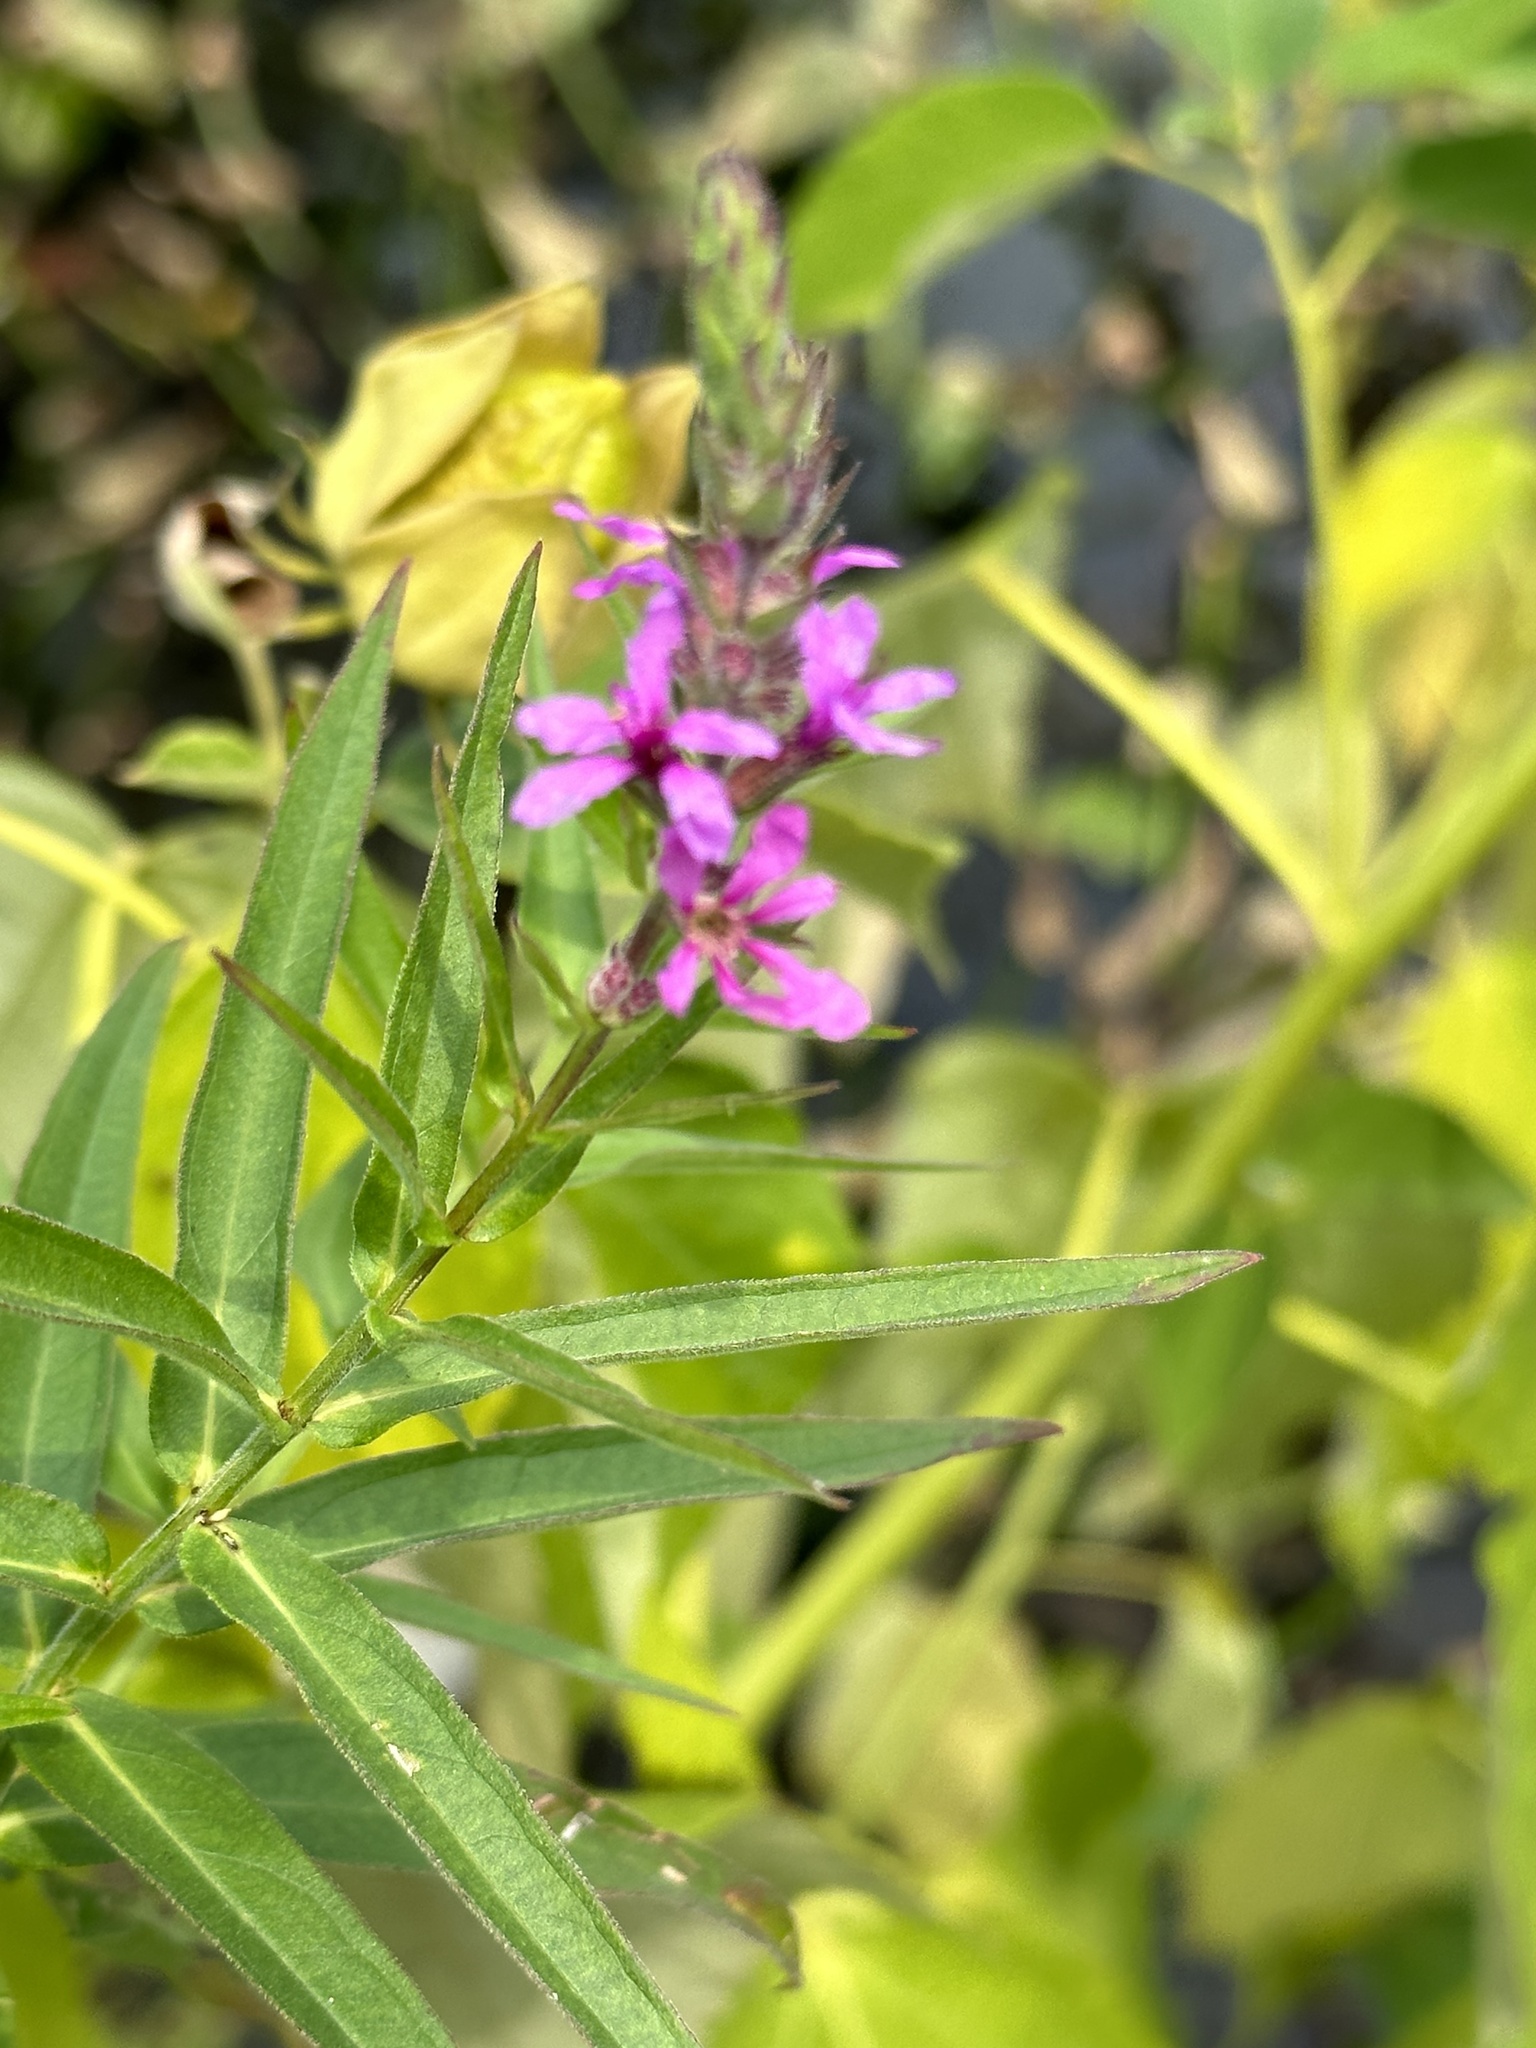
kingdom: Plantae
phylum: Tracheophyta
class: Magnoliopsida
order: Myrtales
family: Lythraceae
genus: Lythrum
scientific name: Lythrum salicaria
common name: Purple loosestrife
